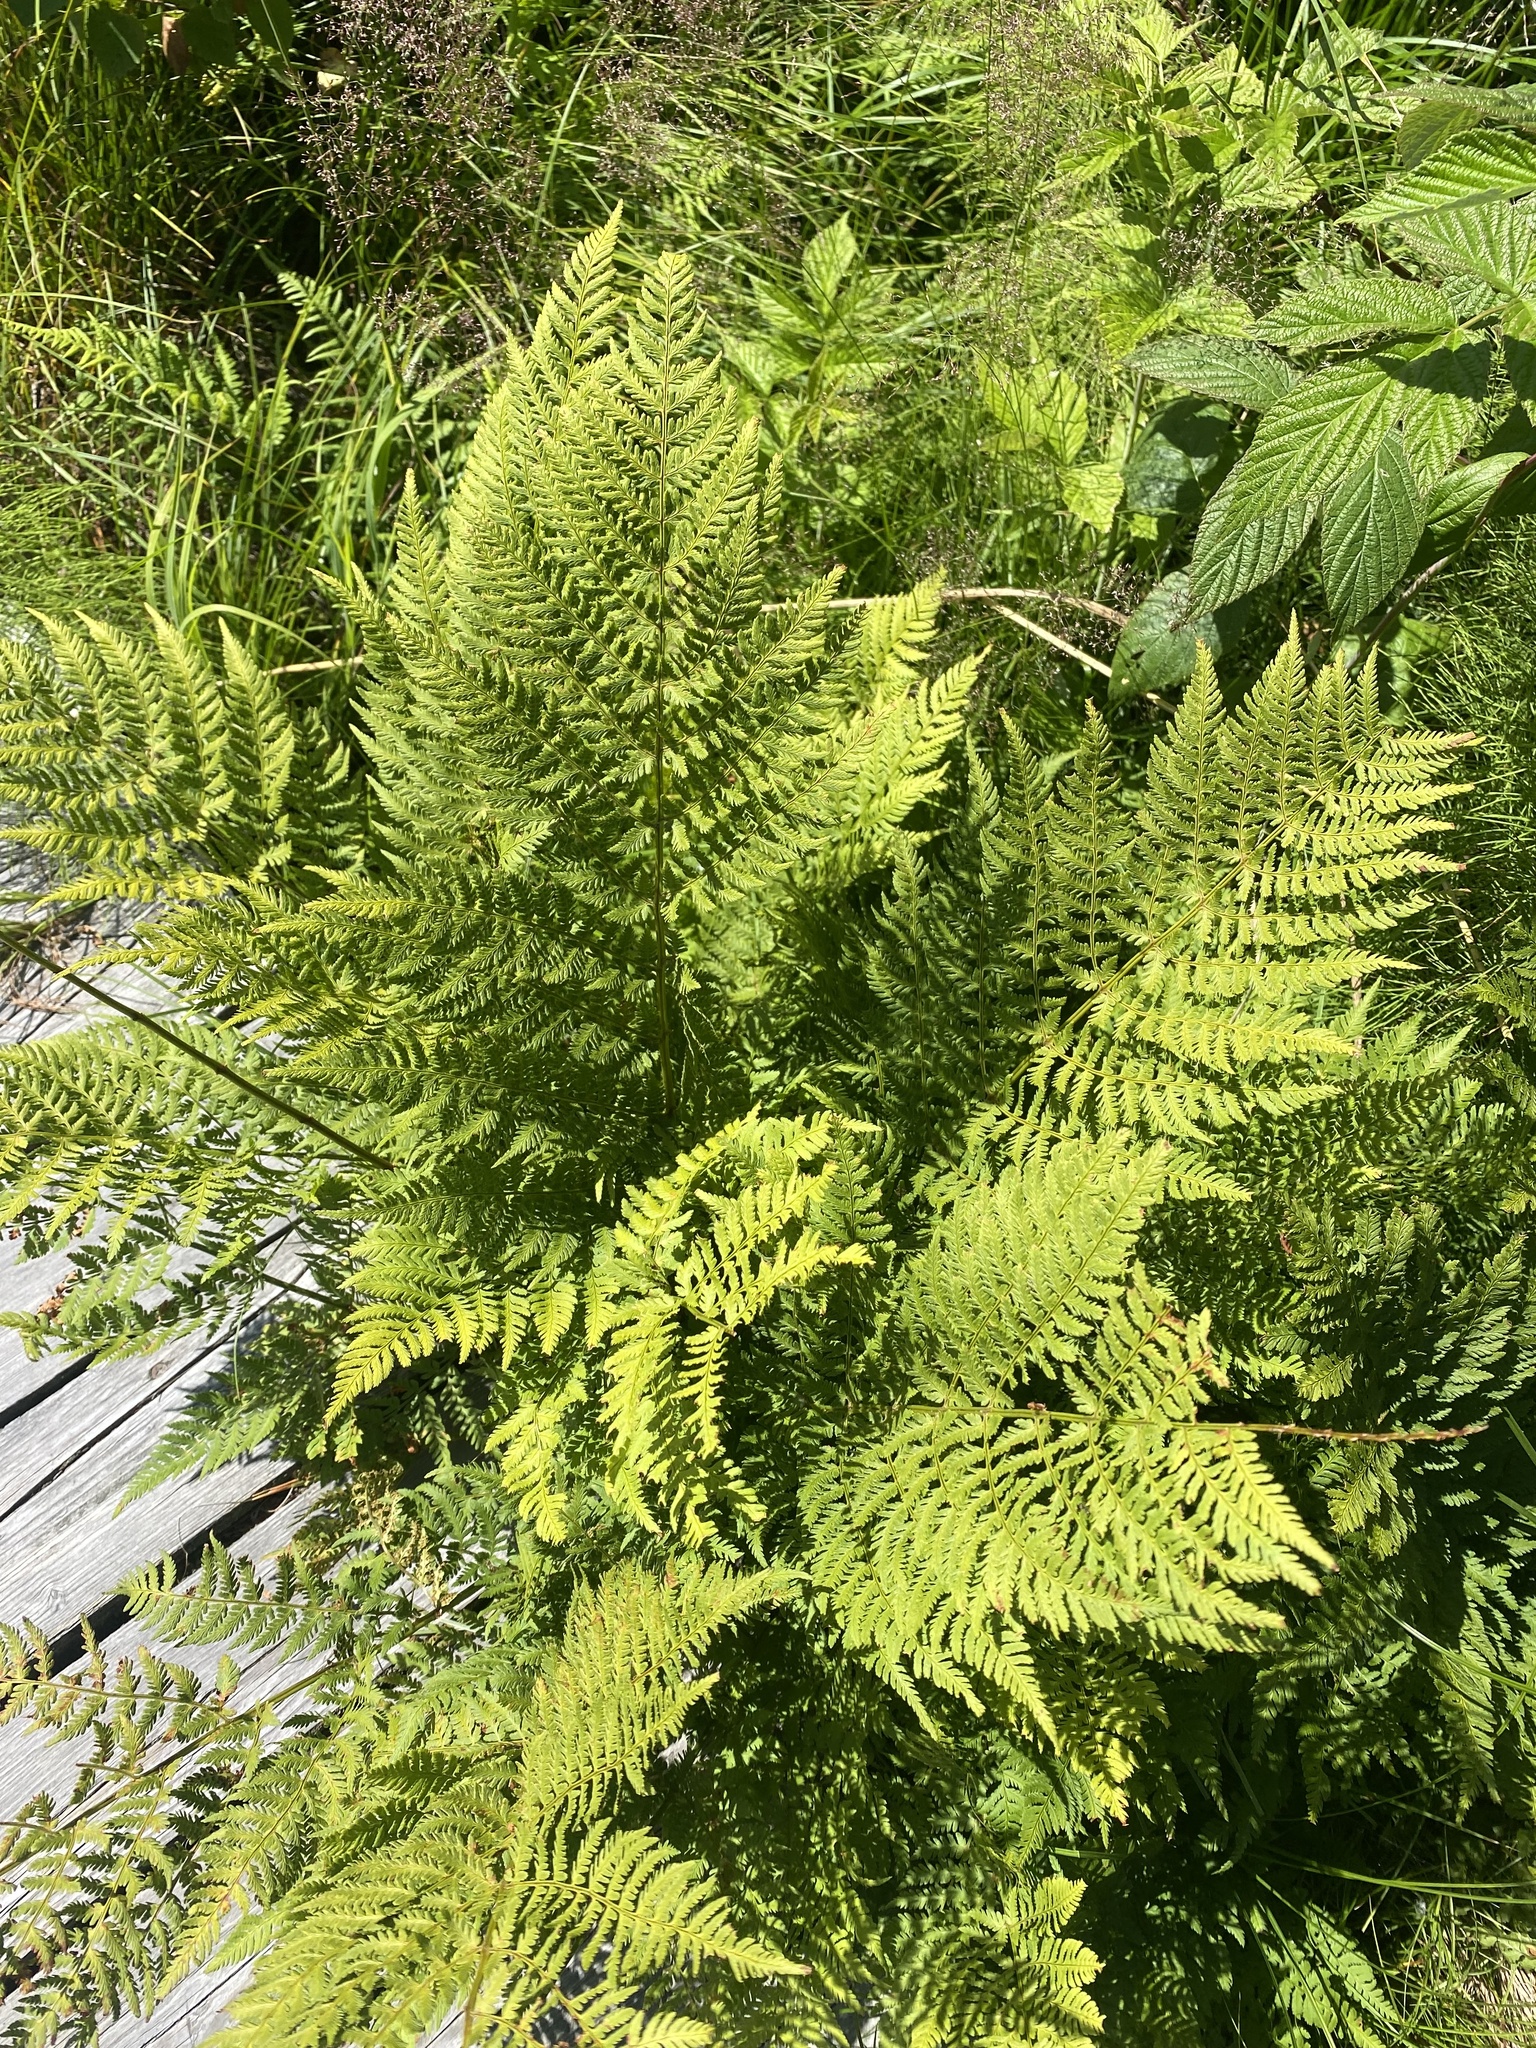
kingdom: Plantae
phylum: Tracheophyta
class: Polypodiopsida
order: Polypodiales
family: Dryopteridaceae
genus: Dryopteris
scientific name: Dryopteris expansa
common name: Northern buckler fern
